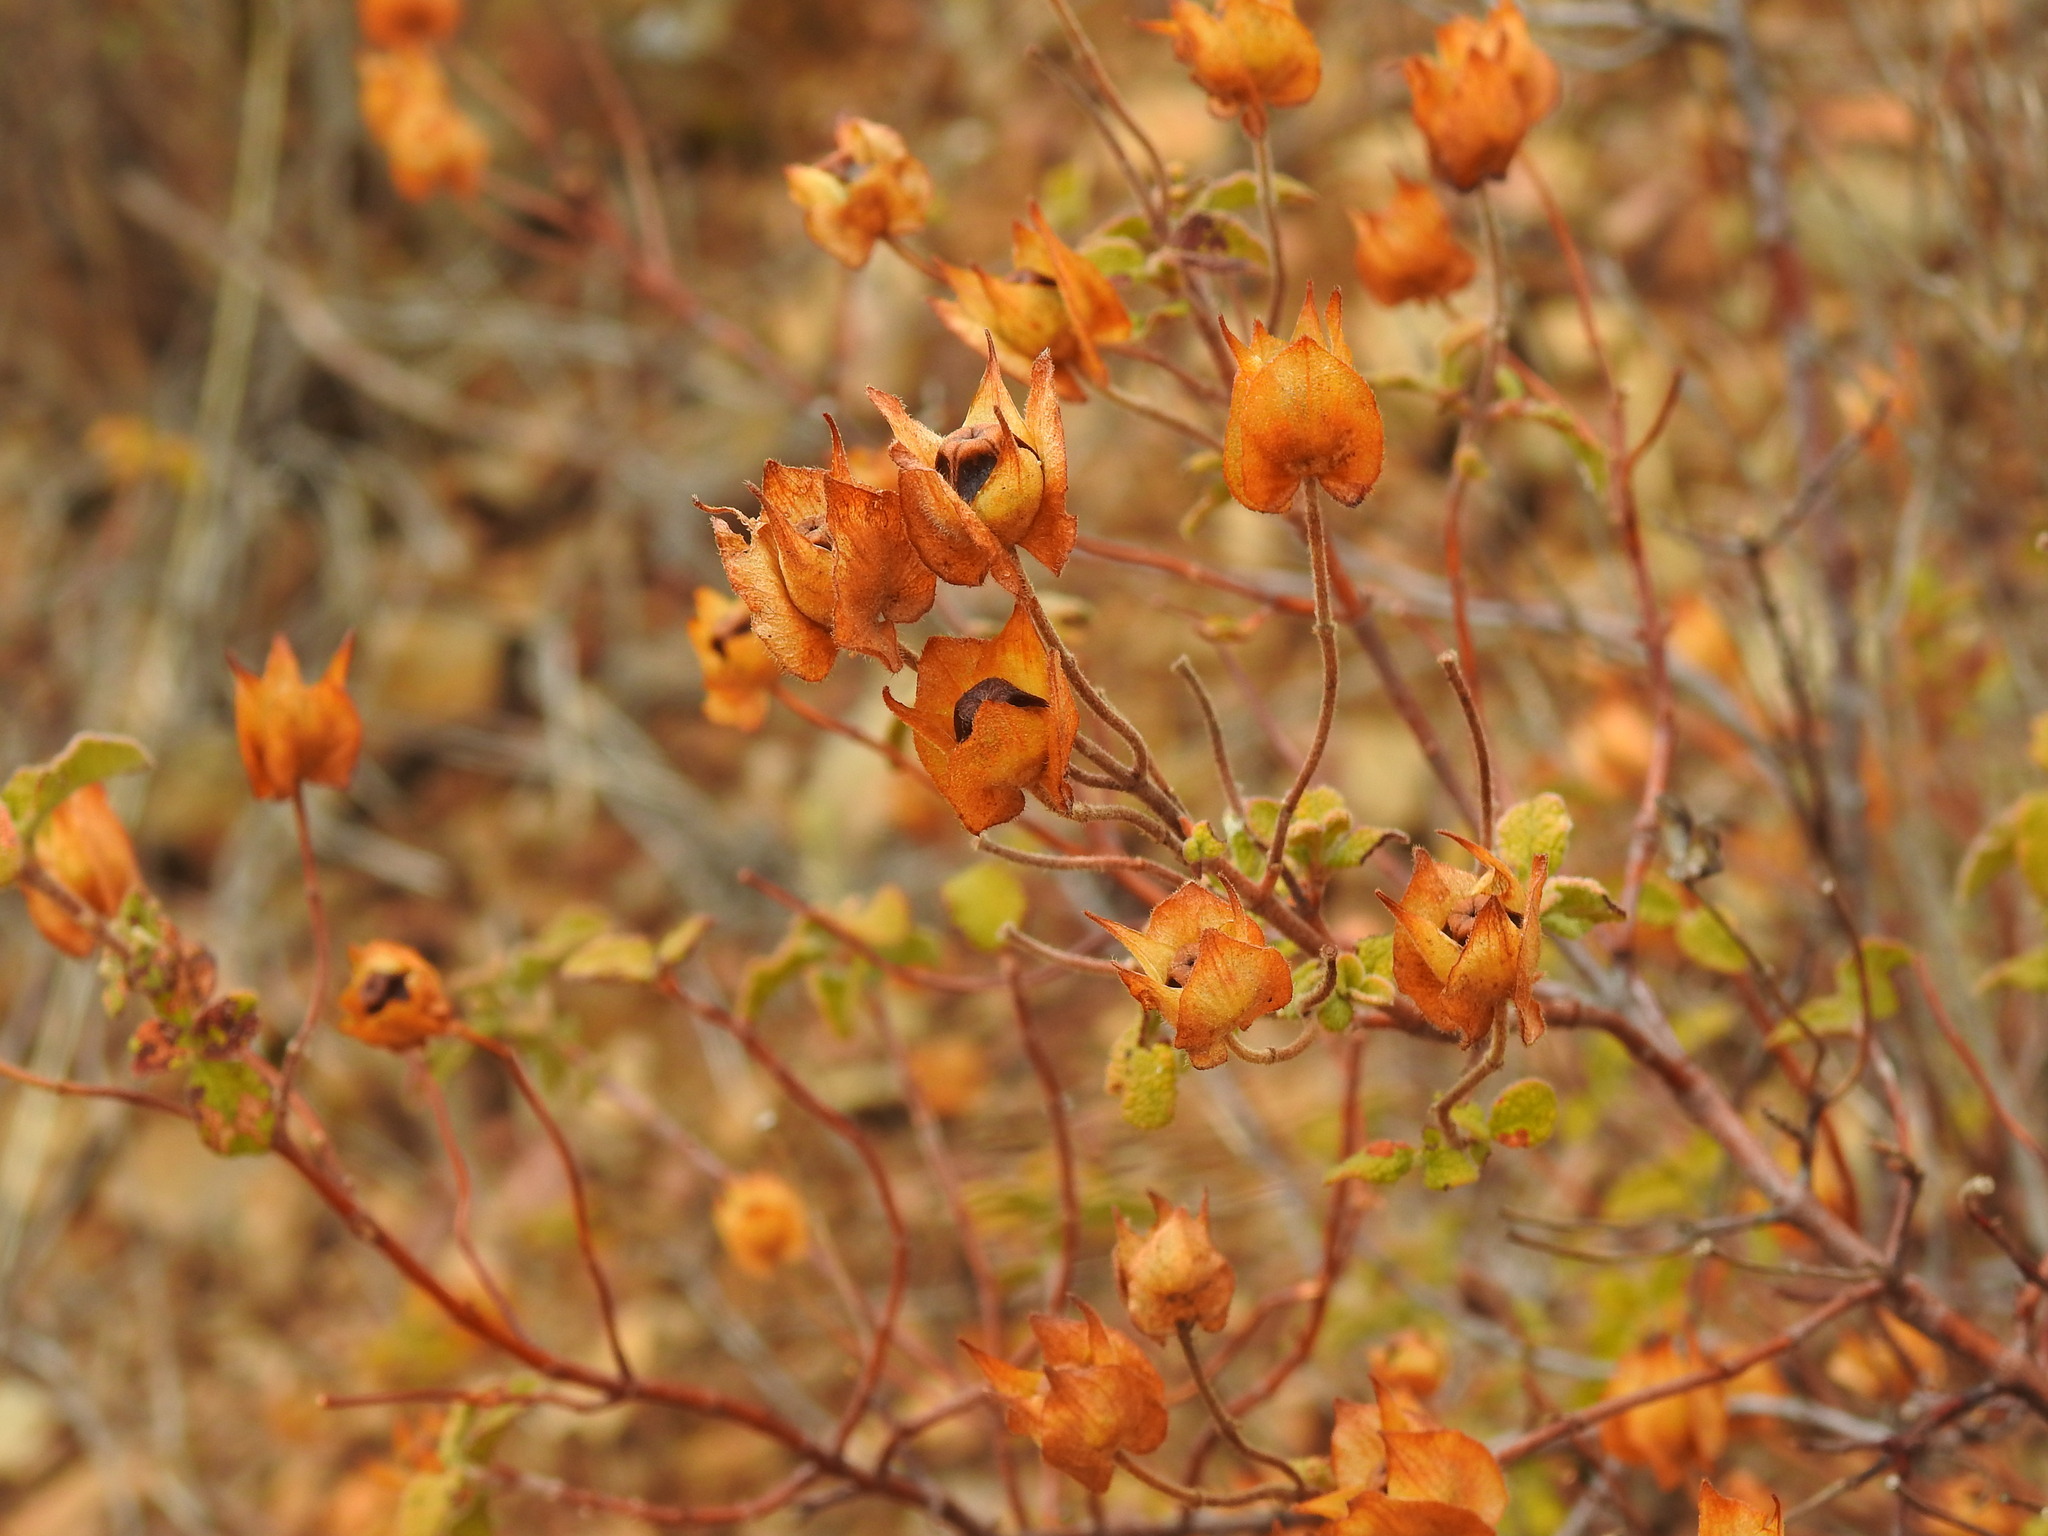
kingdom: Plantae
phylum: Tracheophyta
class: Magnoliopsida
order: Malvales
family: Cistaceae
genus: Cistus
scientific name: Cistus salviifolius
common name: Salvia cistus
